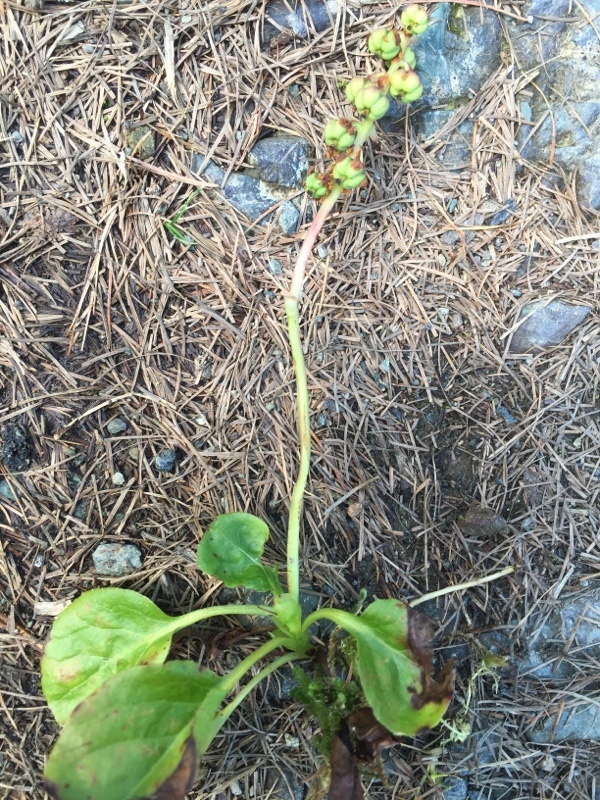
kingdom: Plantae
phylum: Tracheophyta
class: Magnoliopsida
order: Ericales
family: Ericaceae
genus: Pyrola
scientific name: Pyrola minor
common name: Common wintergreen
